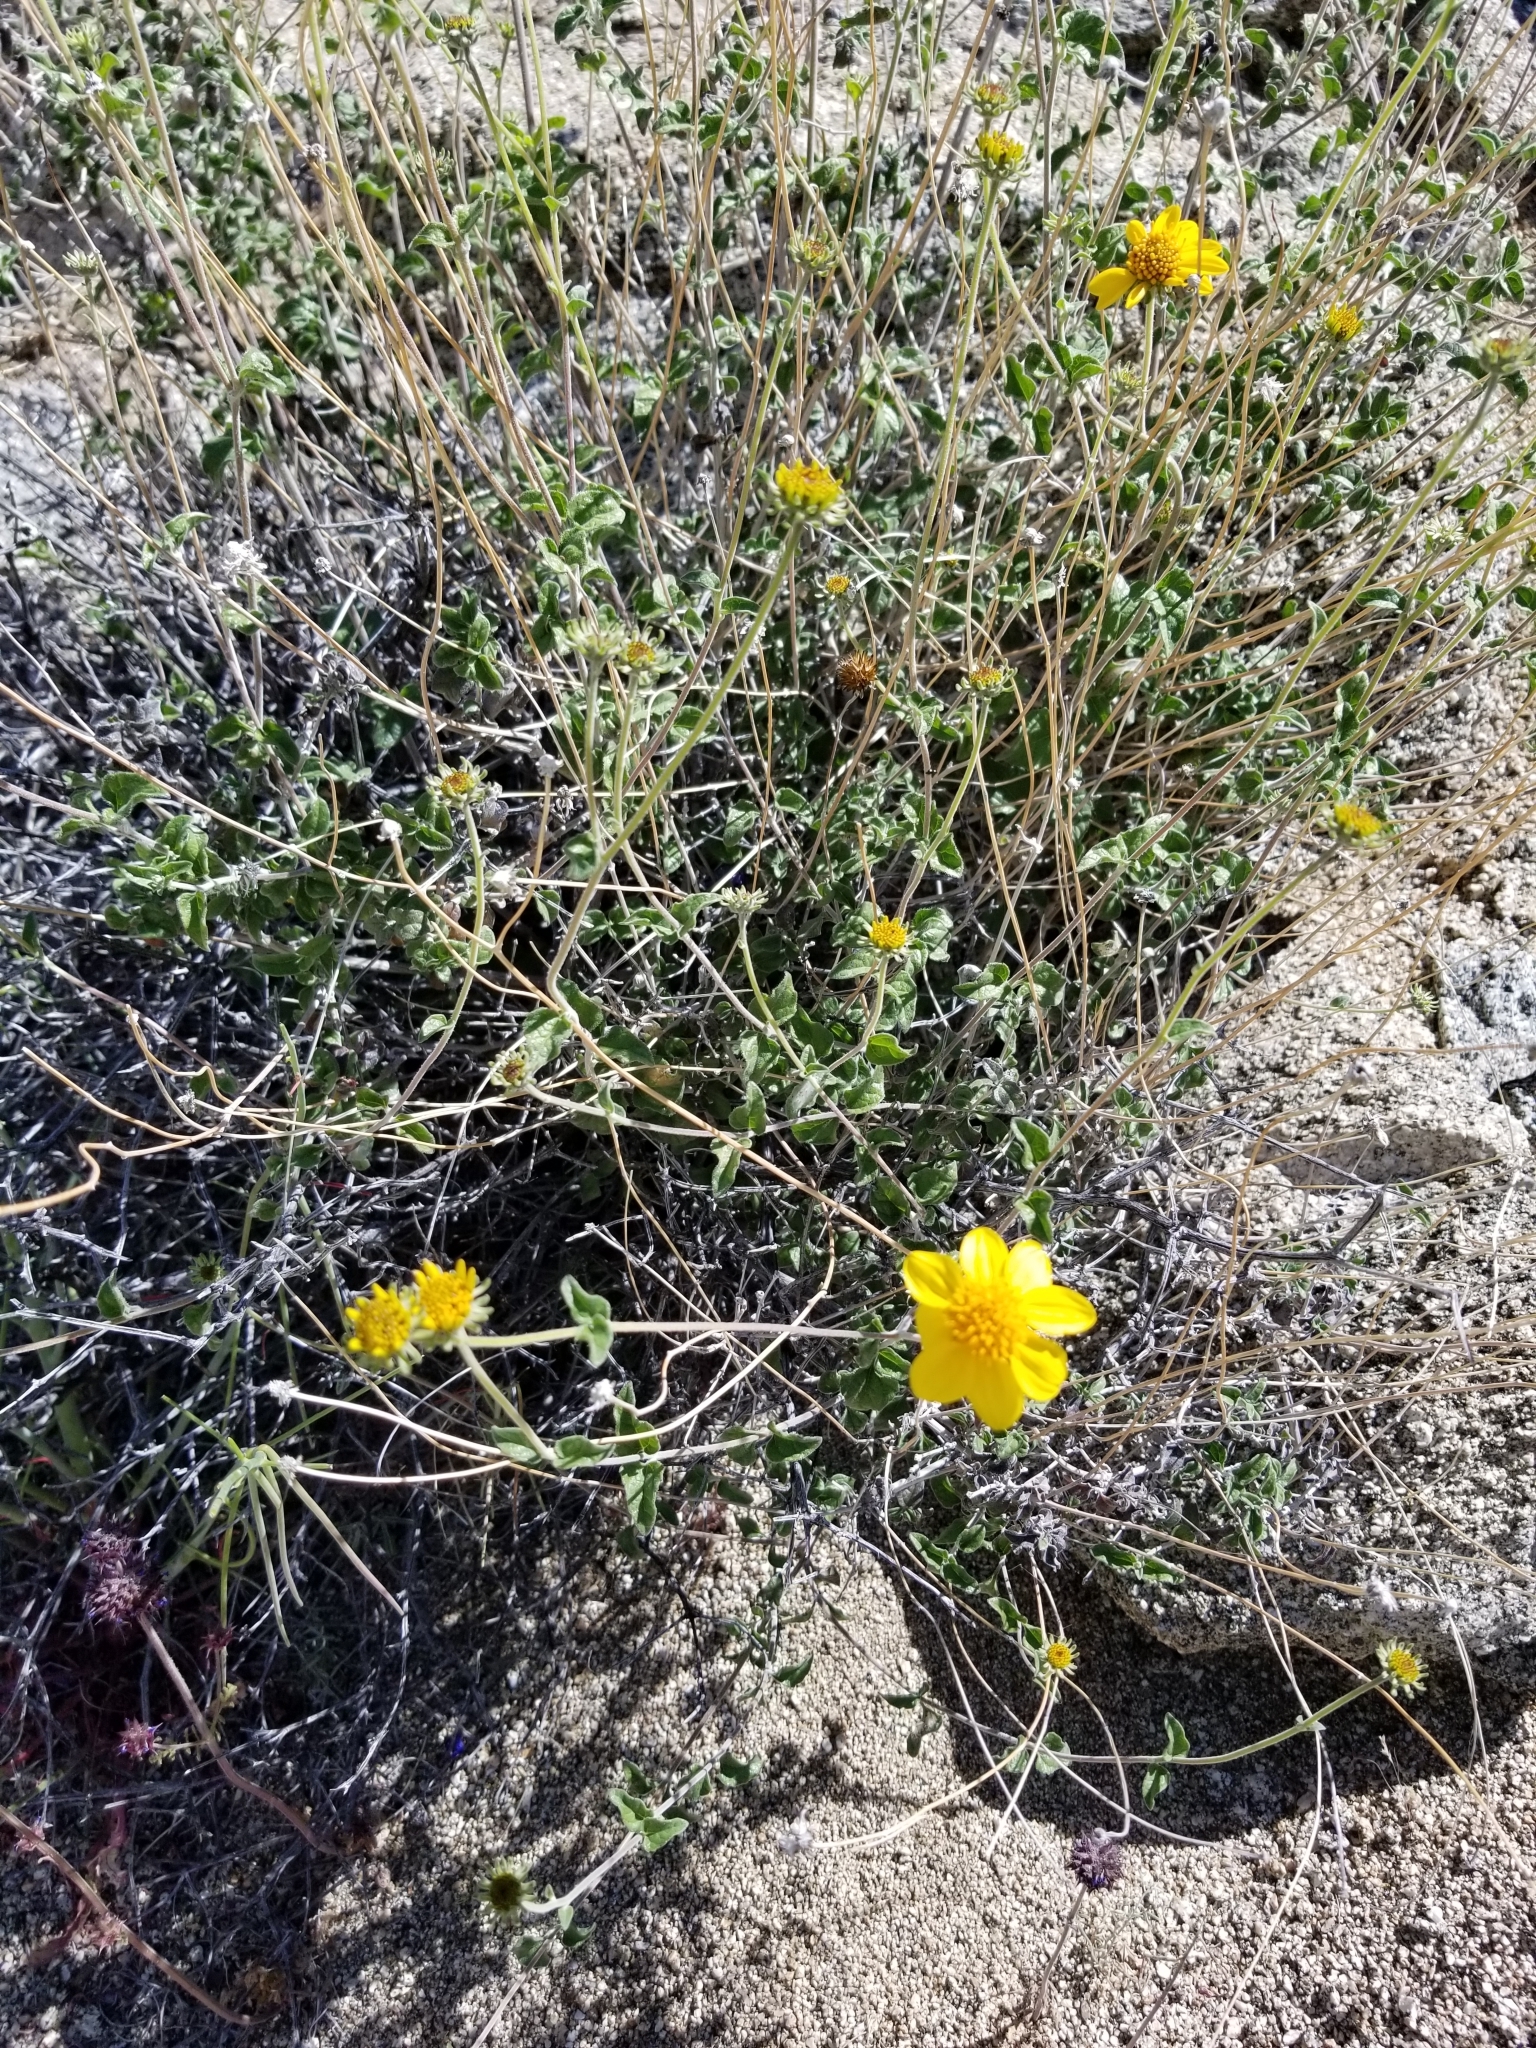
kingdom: Plantae
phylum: Tracheophyta
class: Magnoliopsida
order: Asterales
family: Asteraceae
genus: Bahiopsis
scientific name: Bahiopsis parishii
